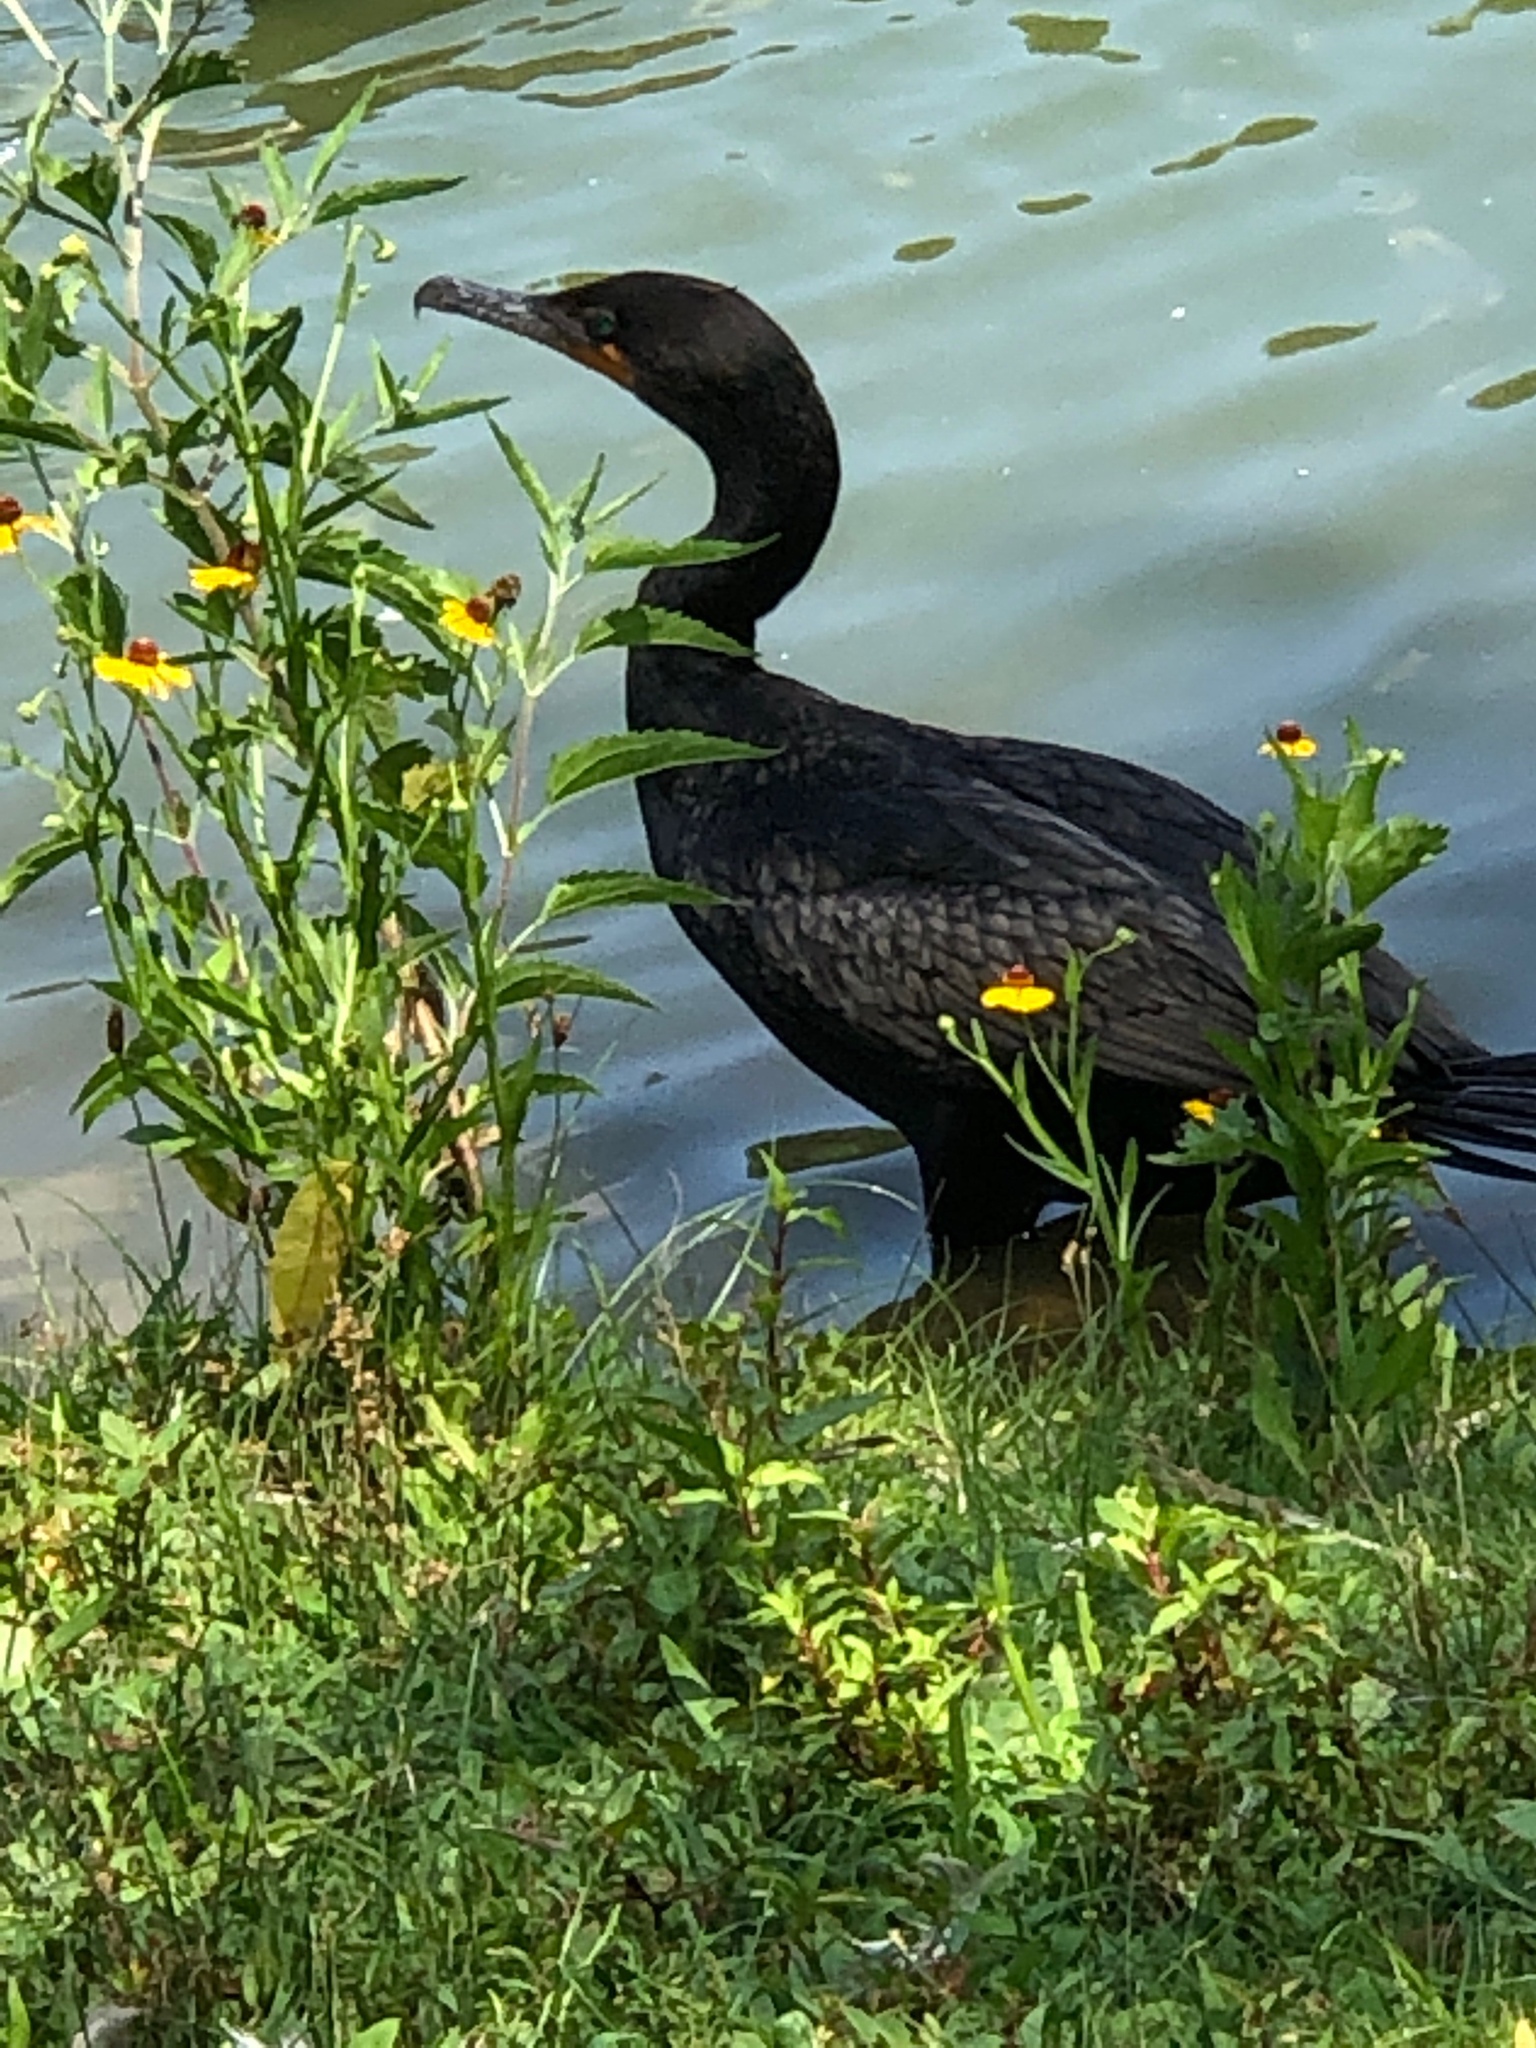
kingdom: Animalia
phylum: Chordata
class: Aves
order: Suliformes
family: Phalacrocoracidae
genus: Phalacrocorax
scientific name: Phalacrocorax auritus
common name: Double-crested cormorant
